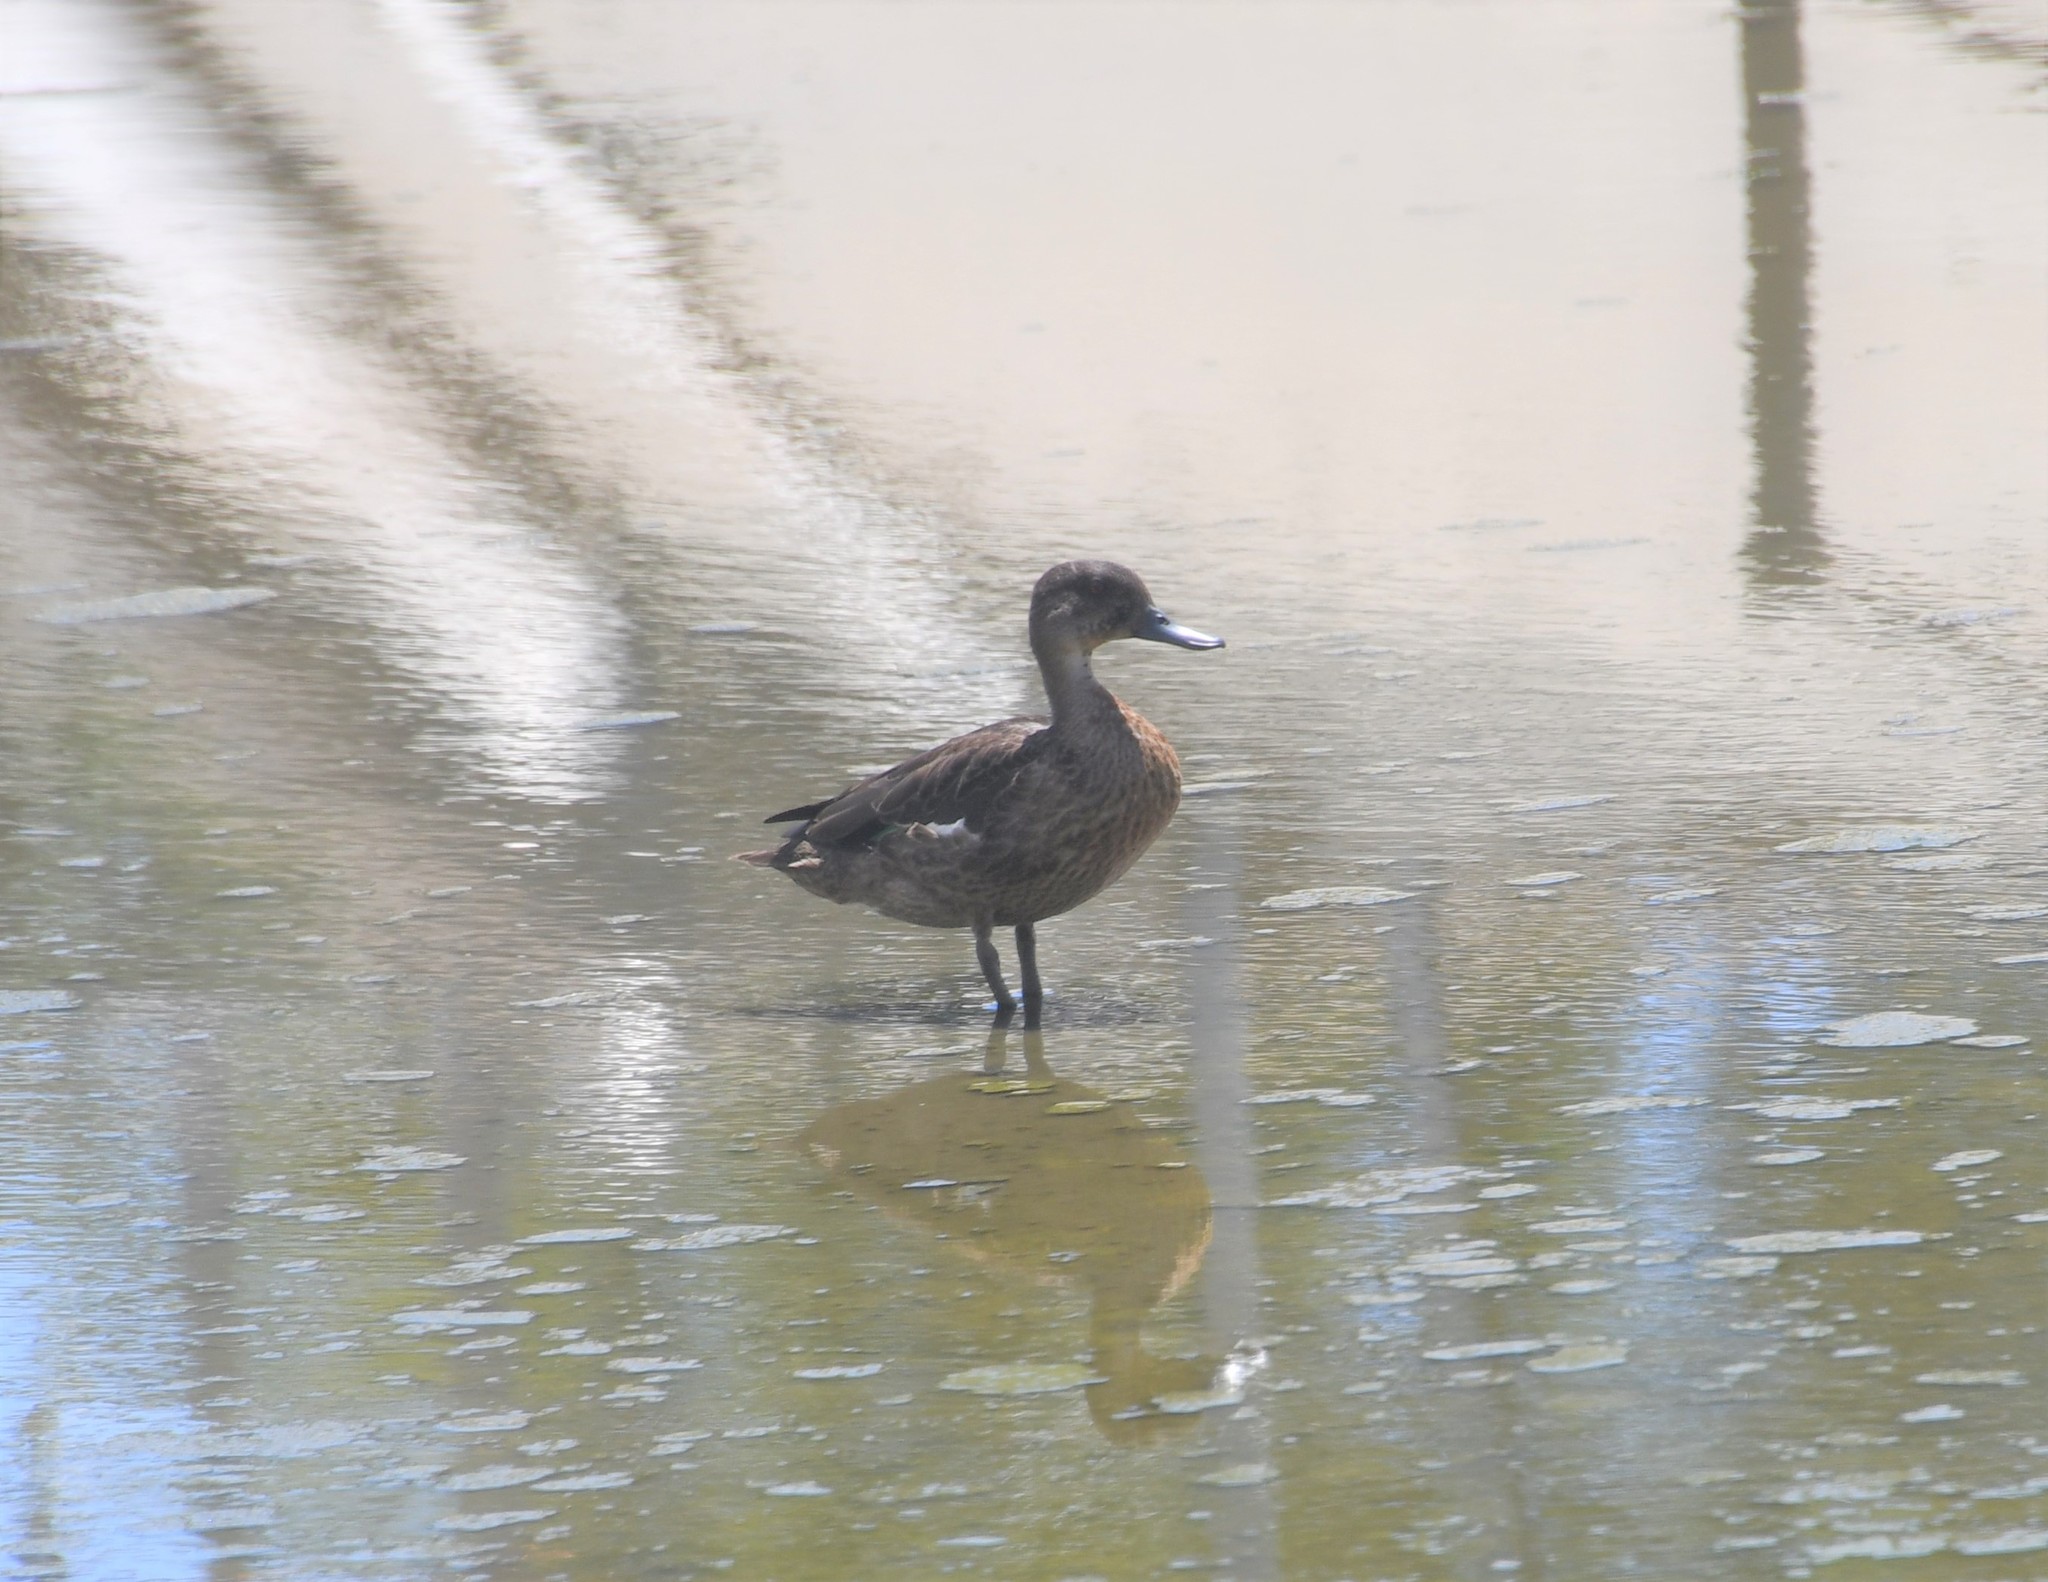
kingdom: Animalia
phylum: Chordata
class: Aves
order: Anseriformes
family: Anatidae
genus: Anas
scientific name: Anas castanea
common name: Chestnut teal
